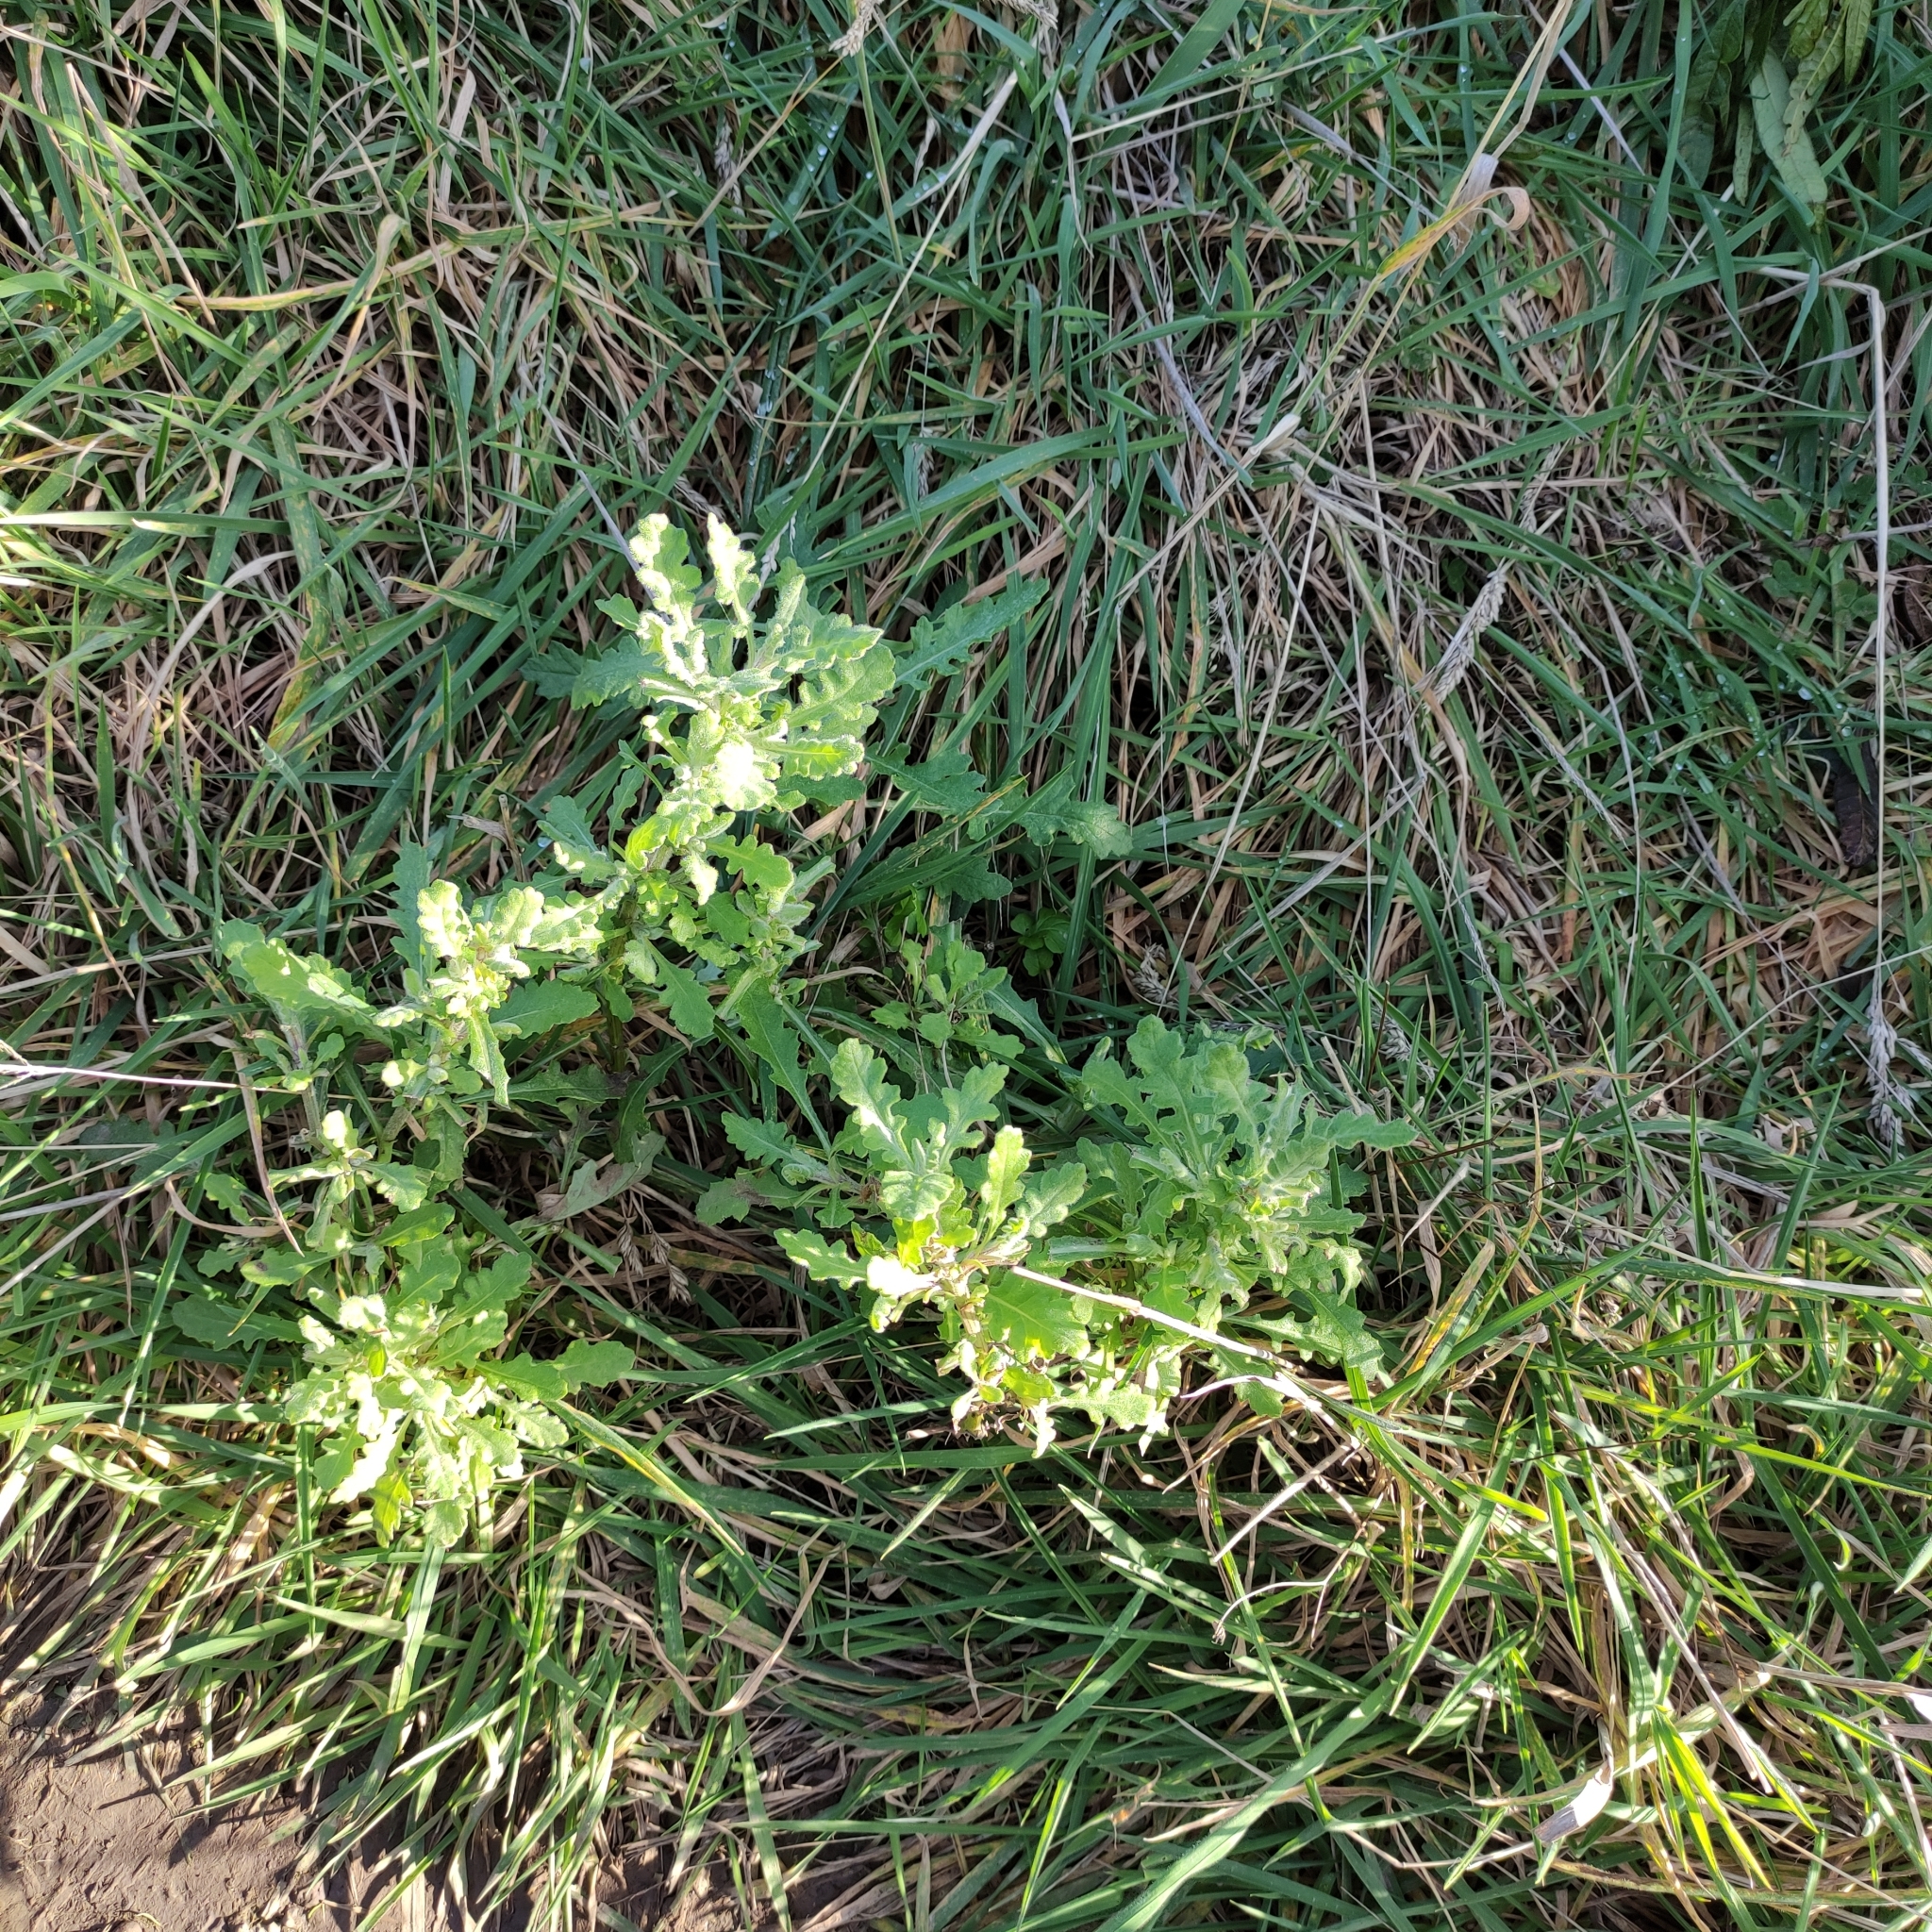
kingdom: Plantae
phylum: Tracheophyta
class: Magnoliopsida
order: Asterales
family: Asteraceae
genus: Senecio
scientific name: Senecio glomeratus
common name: Cutleaf burnweed
